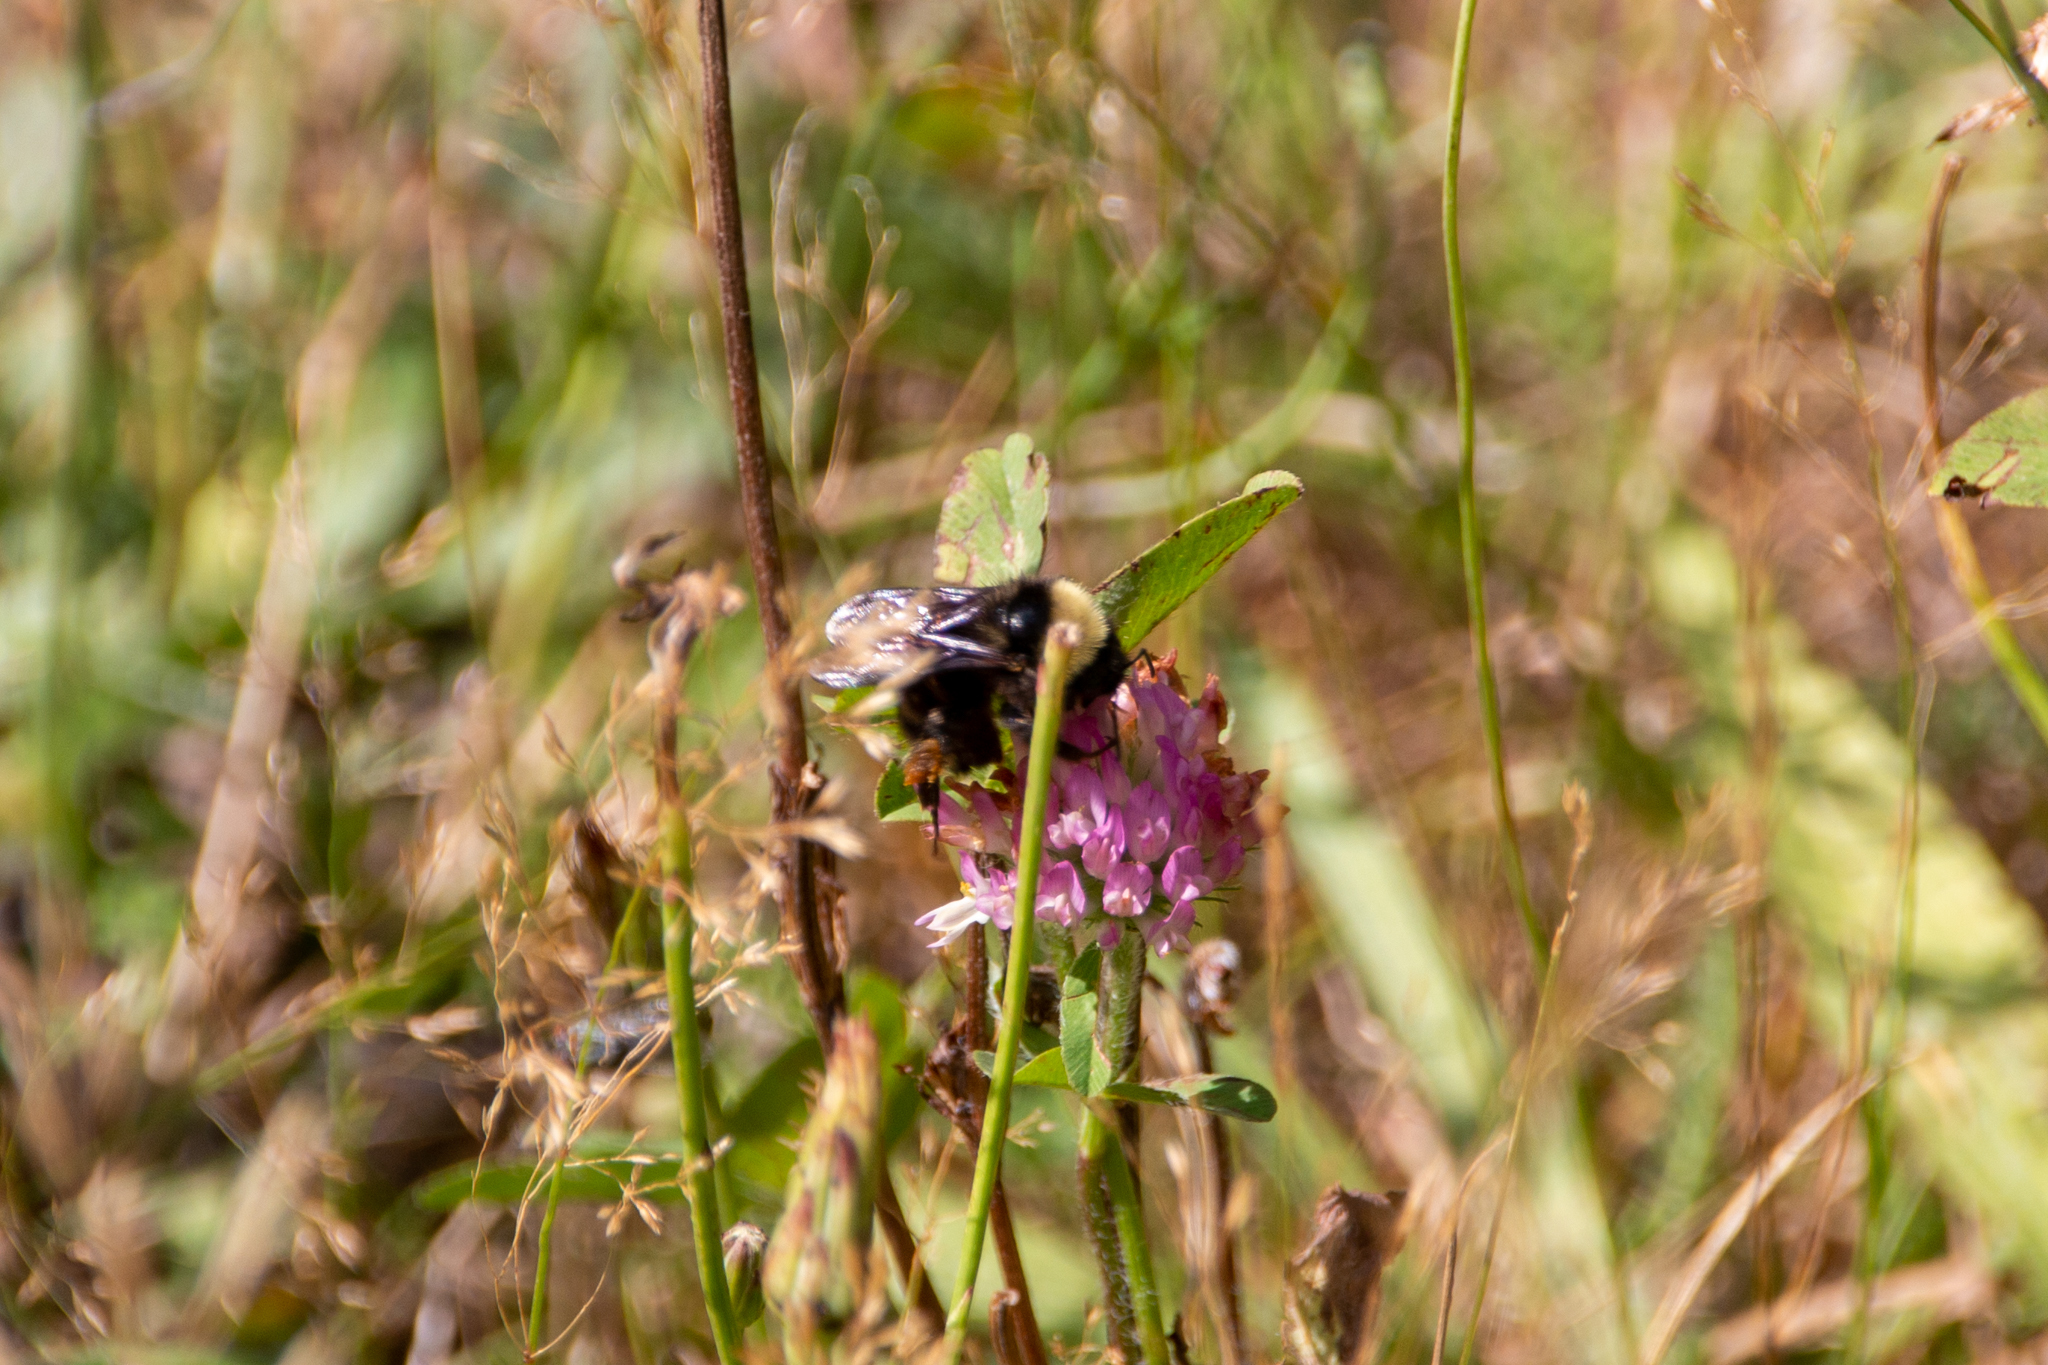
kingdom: Animalia
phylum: Arthropoda
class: Insecta
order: Hymenoptera
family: Apidae
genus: Bombus
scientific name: Bombus californicus
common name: California bumble bee
